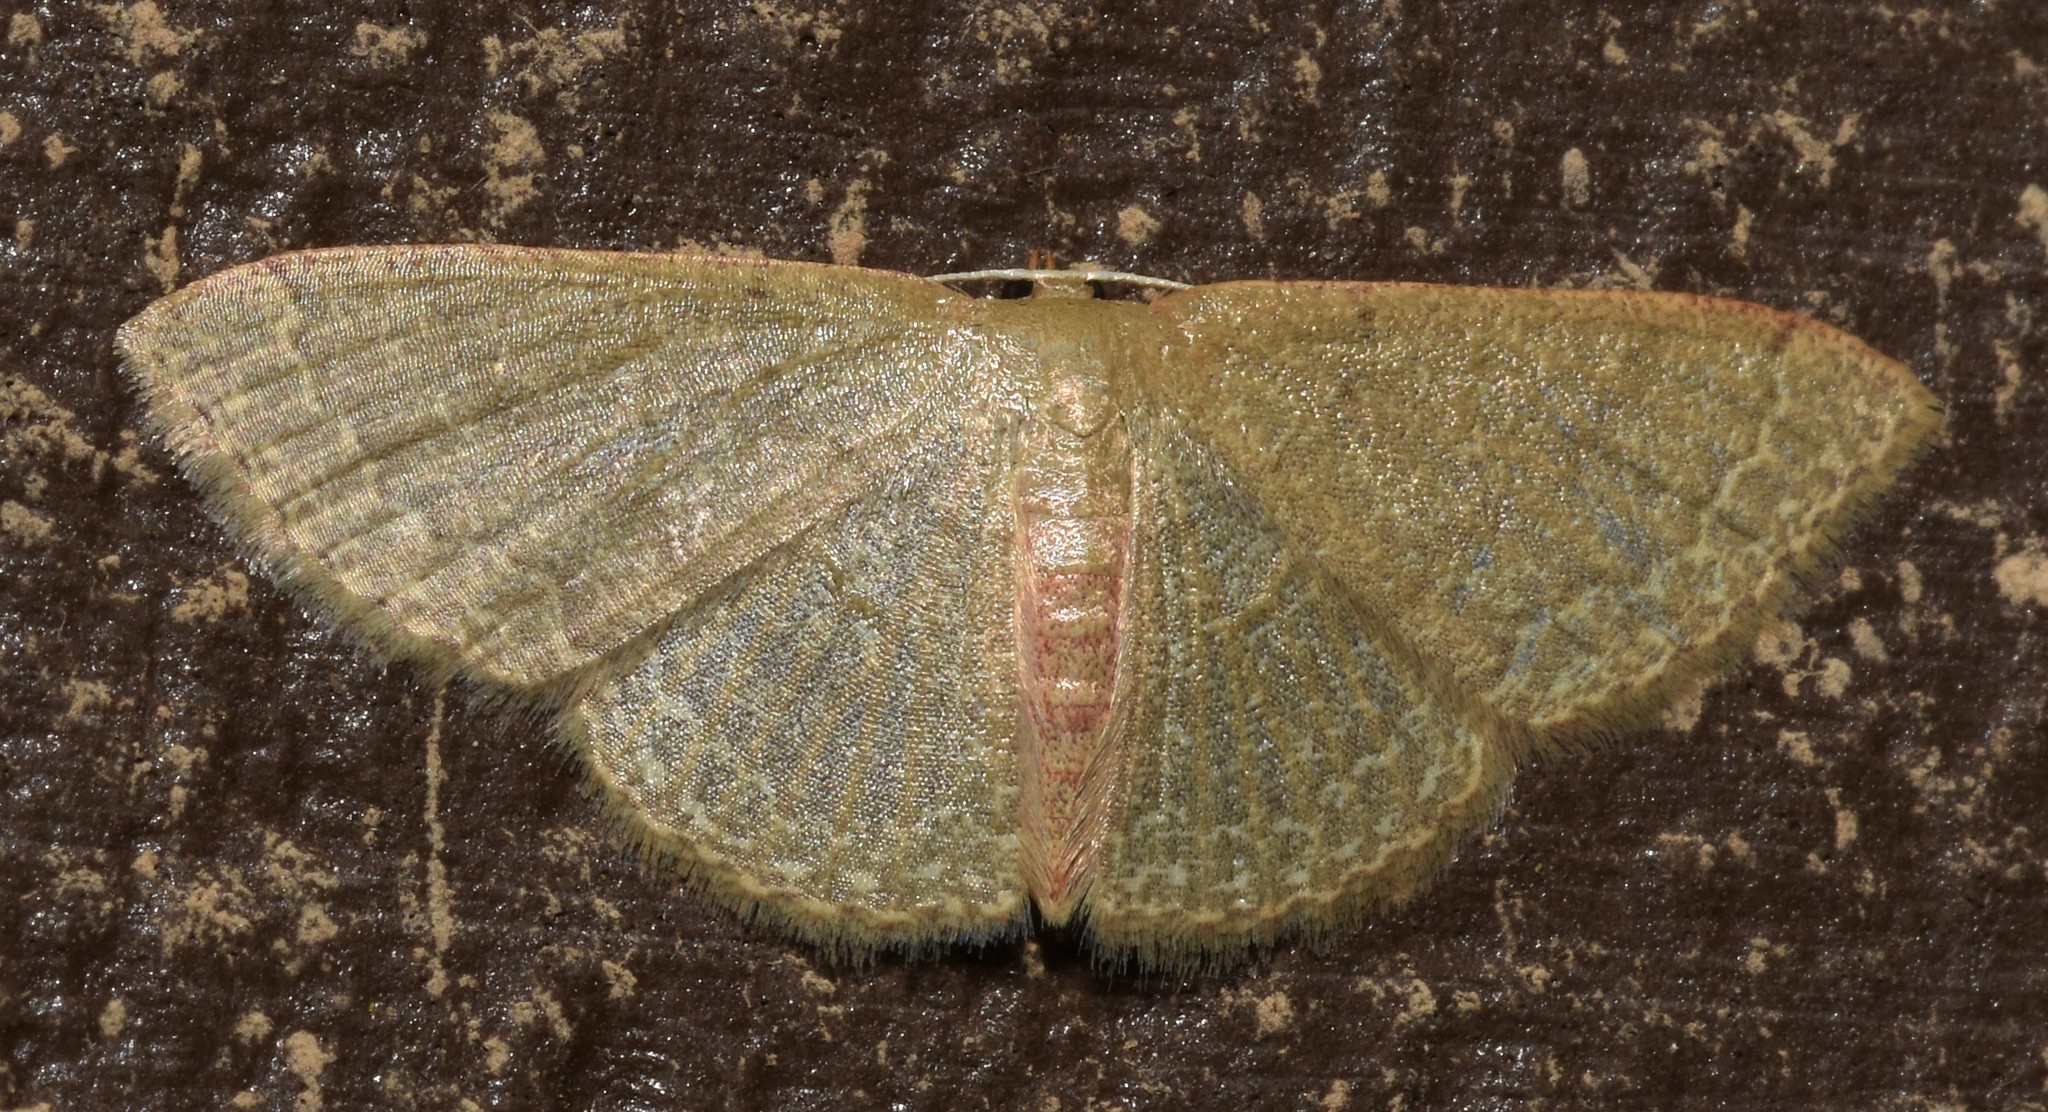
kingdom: Animalia
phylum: Arthropoda
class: Insecta
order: Lepidoptera
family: Geometridae
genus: Pleuroprucha
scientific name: Pleuroprucha insulsaria
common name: Common tan wave
